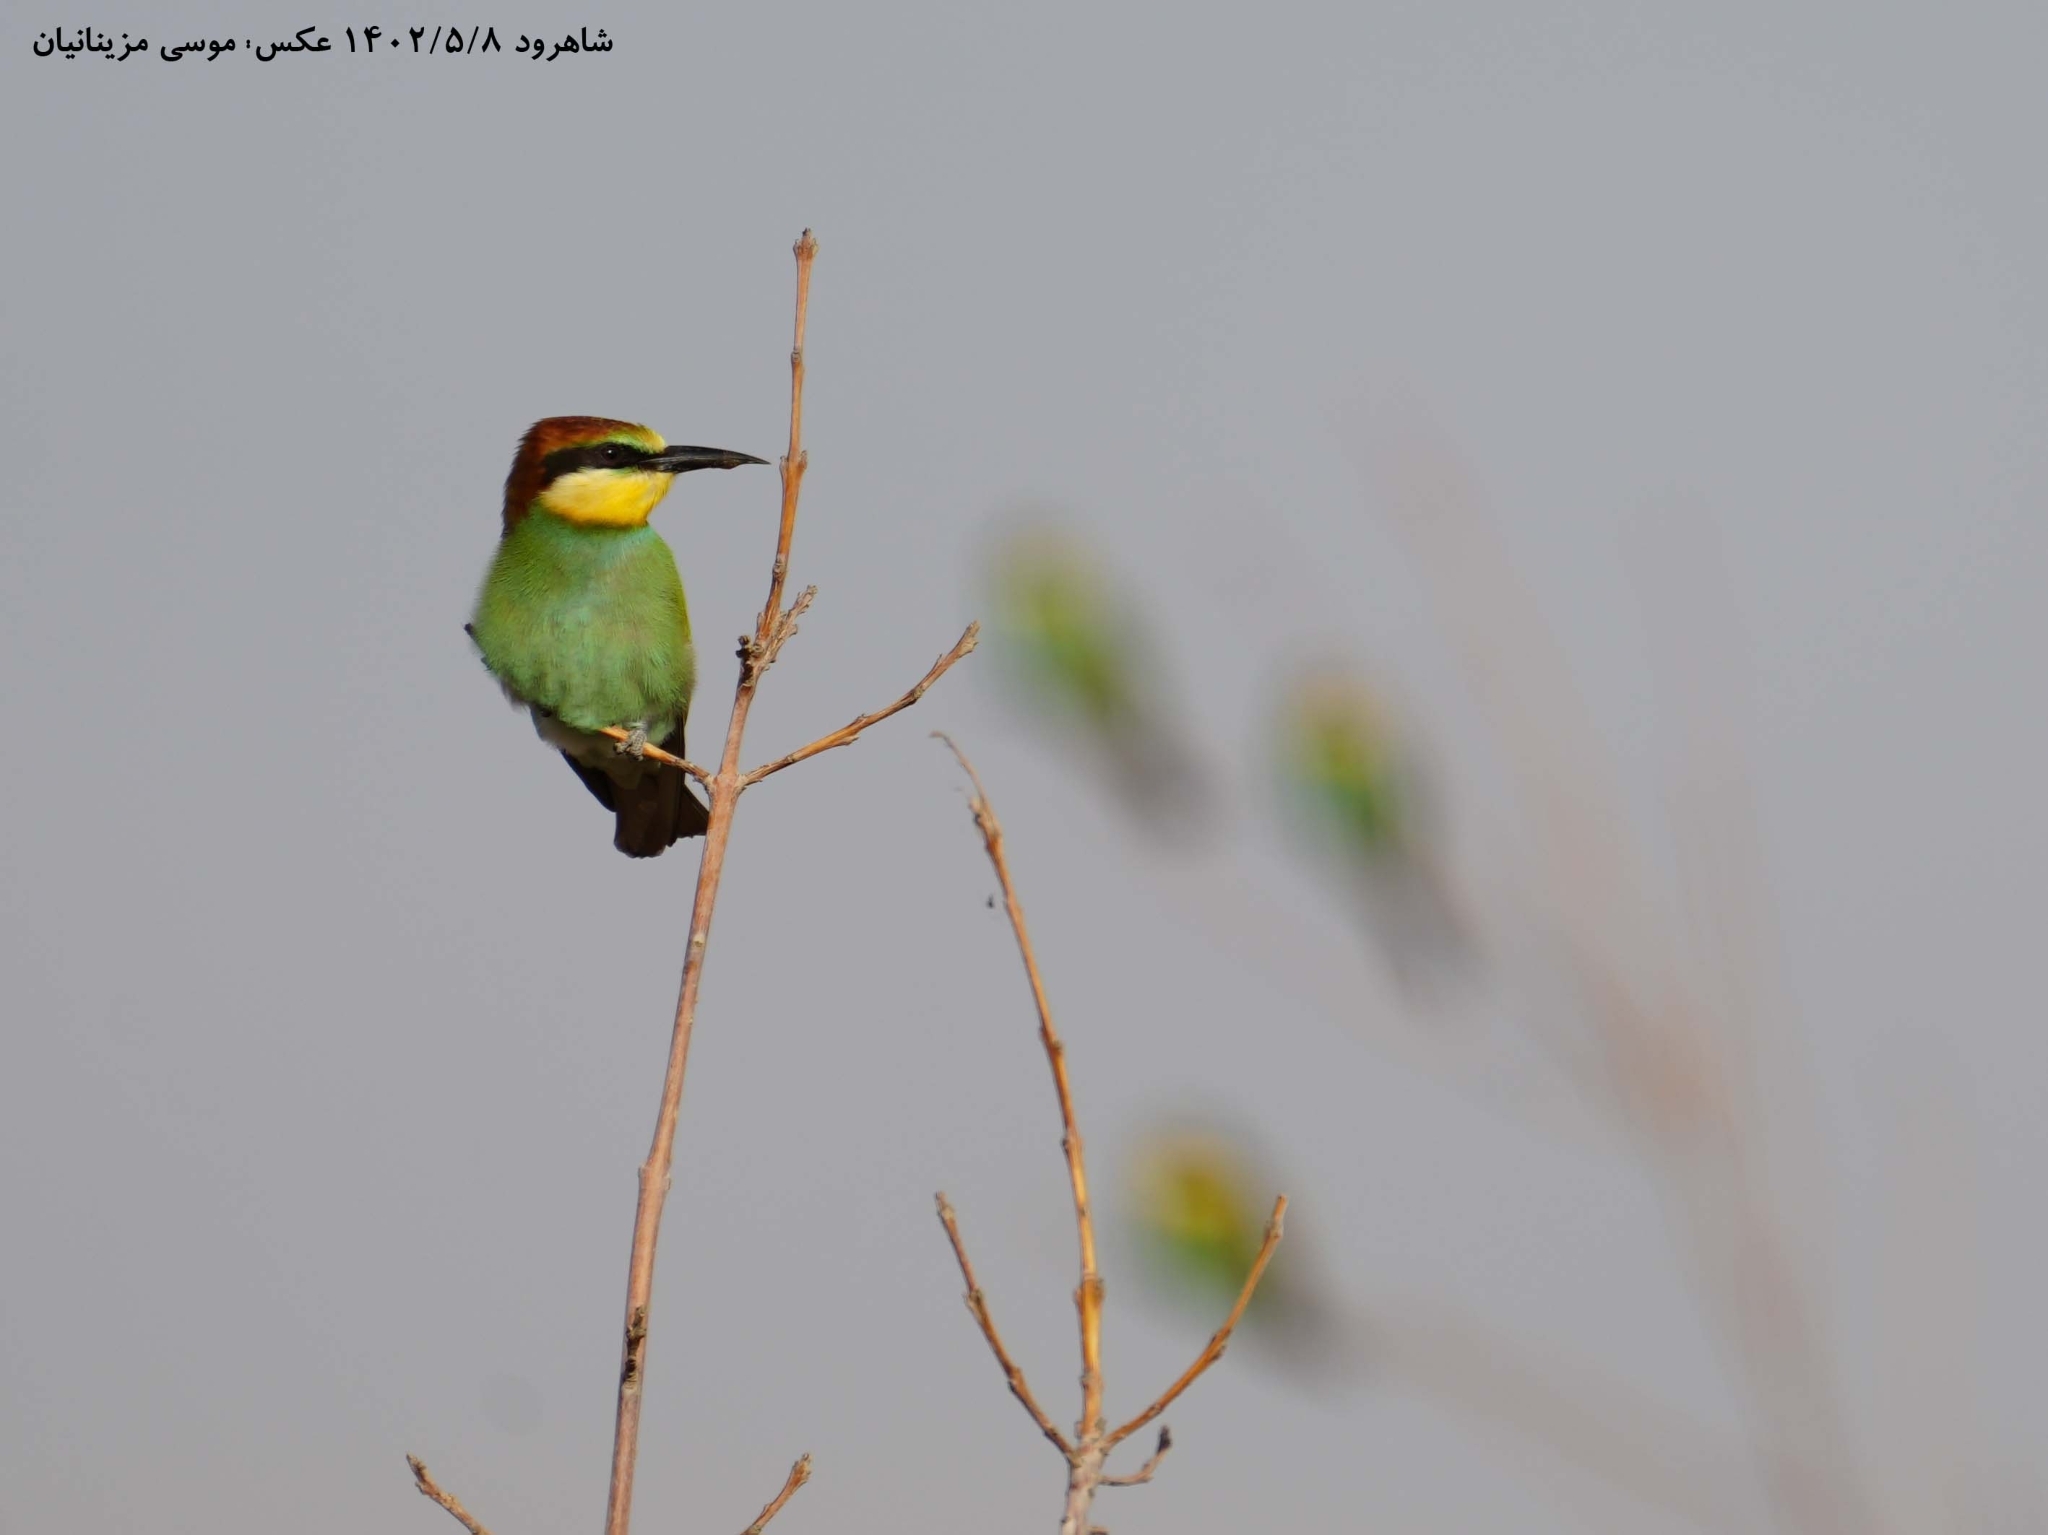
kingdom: Animalia
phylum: Chordata
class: Aves
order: Coraciiformes
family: Meropidae
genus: Merops
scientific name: Merops apiaster
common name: European bee-eater
